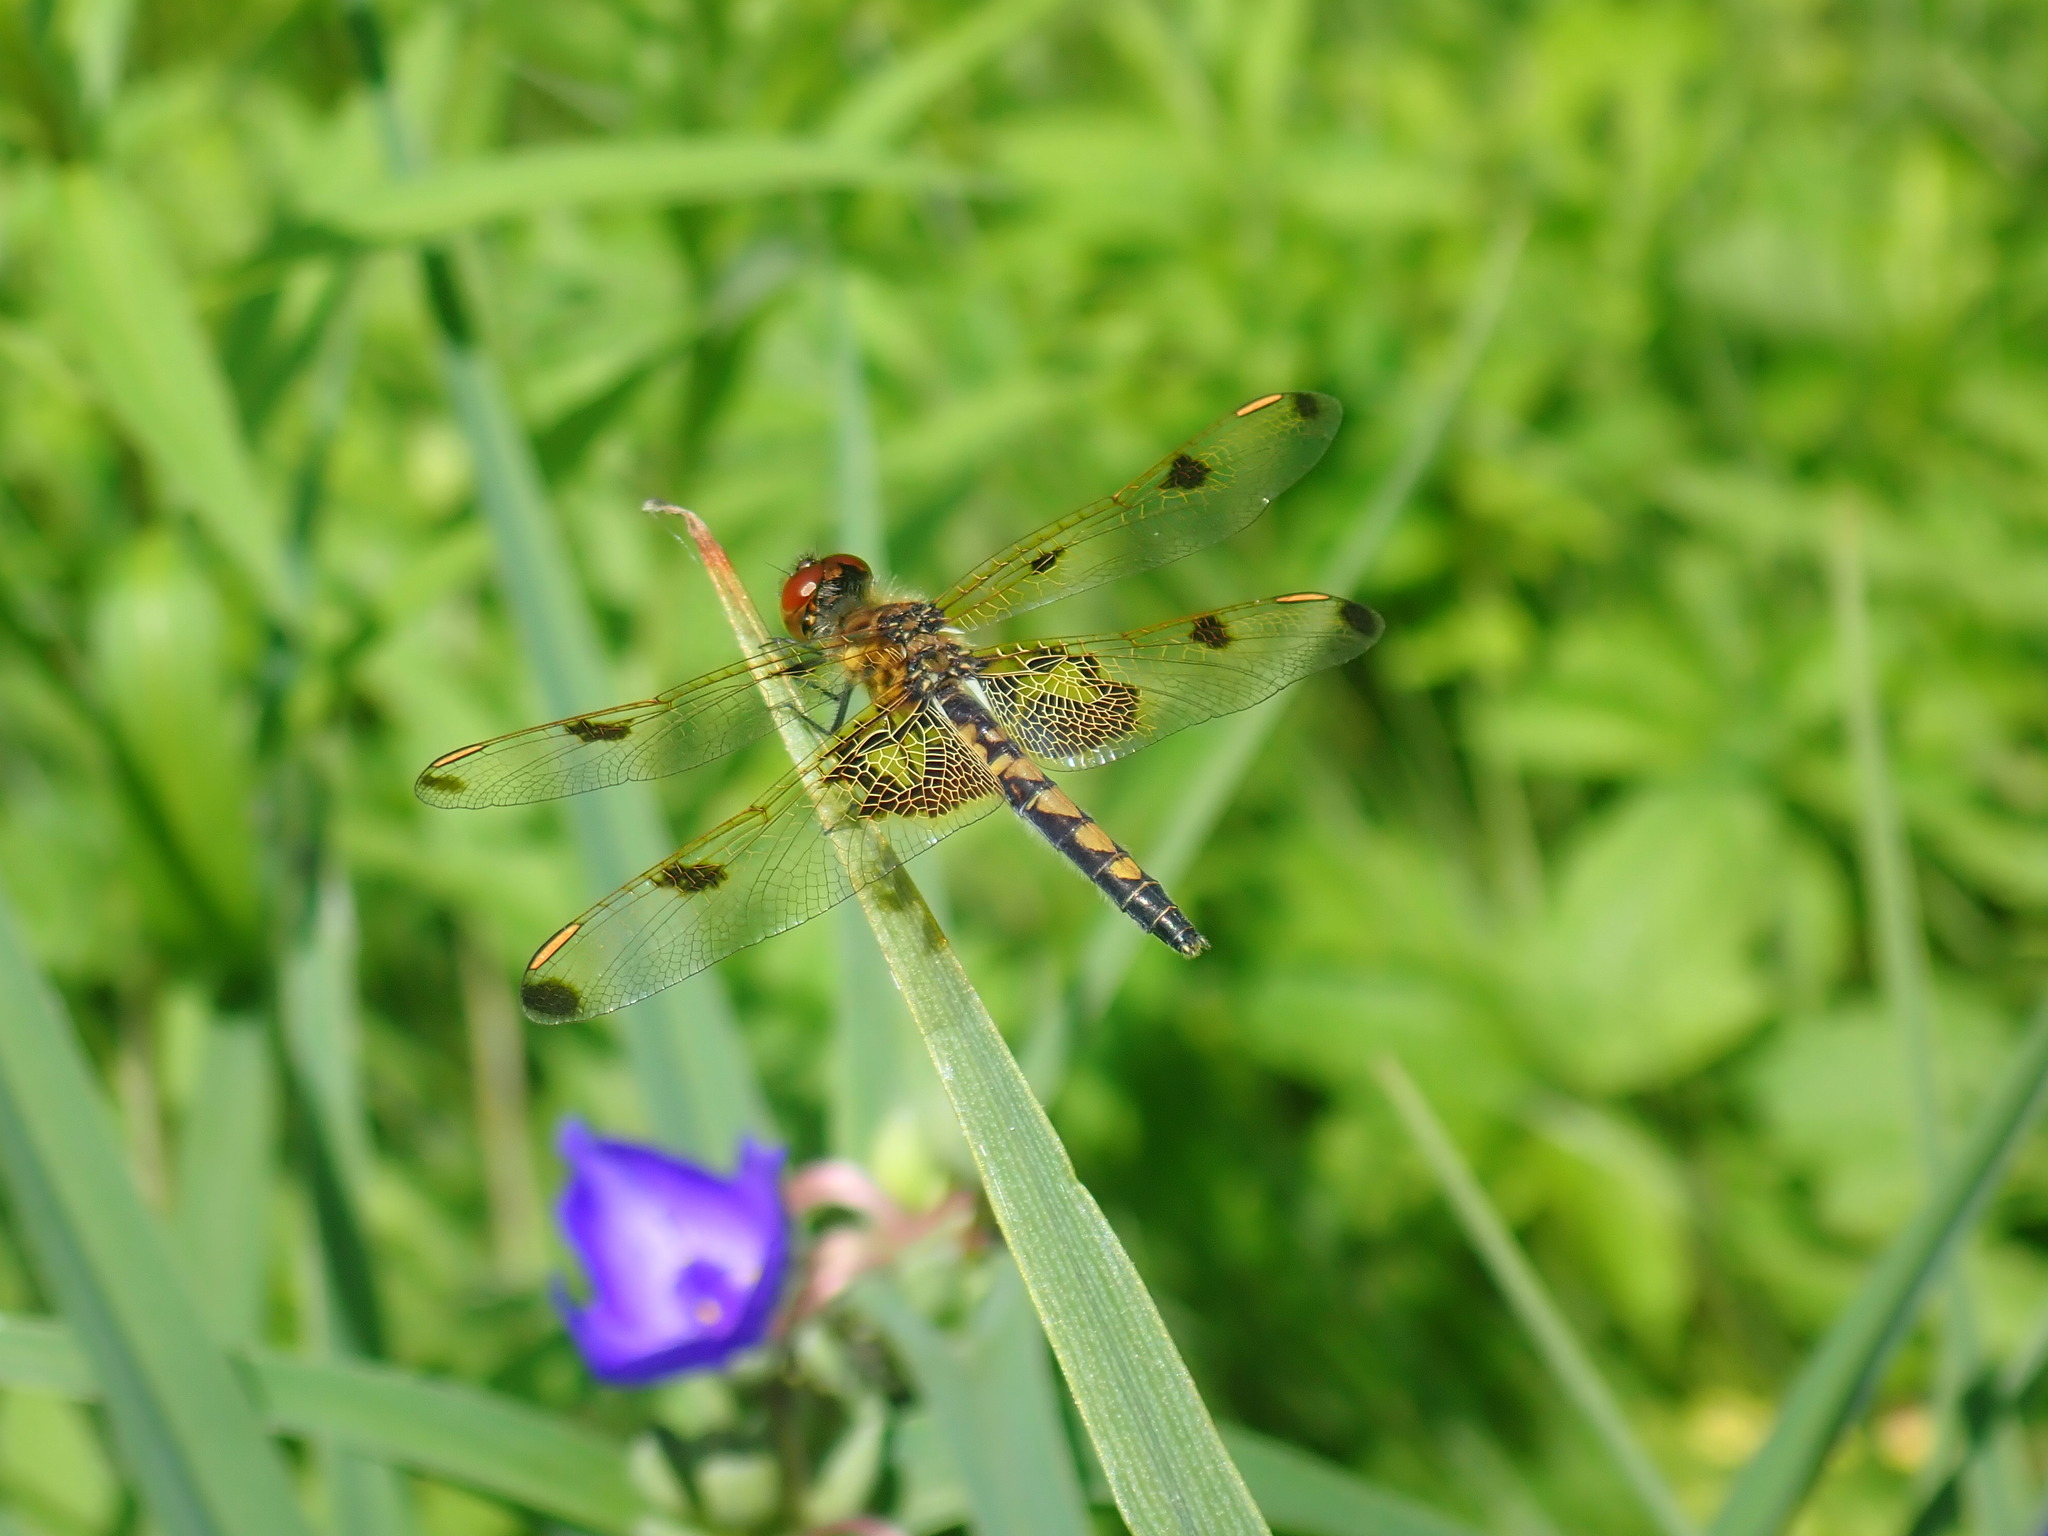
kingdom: Animalia
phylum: Arthropoda
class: Insecta
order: Odonata
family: Libellulidae
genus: Celithemis
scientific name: Celithemis elisa
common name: Calico pennant
